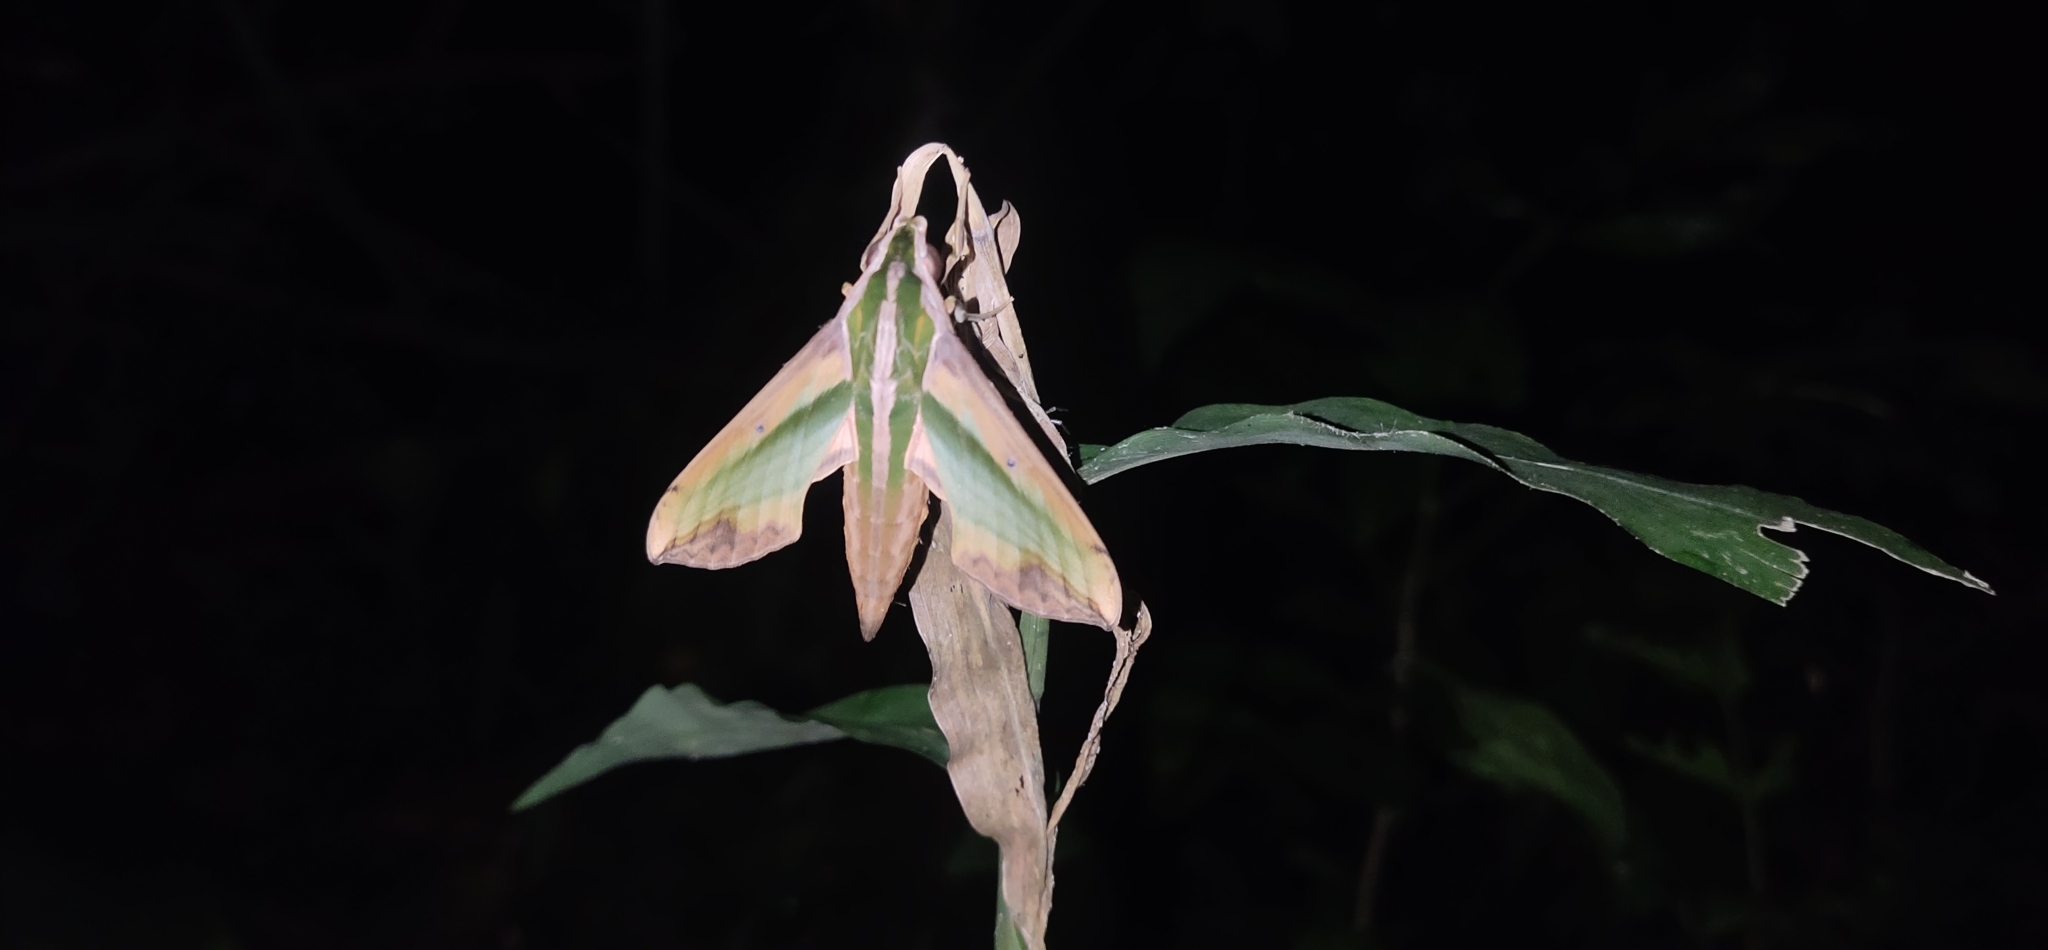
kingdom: Animalia
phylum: Arthropoda
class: Insecta
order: Lepidoptera
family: Sphingidae
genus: Pergesa
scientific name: Pergesa acteus
